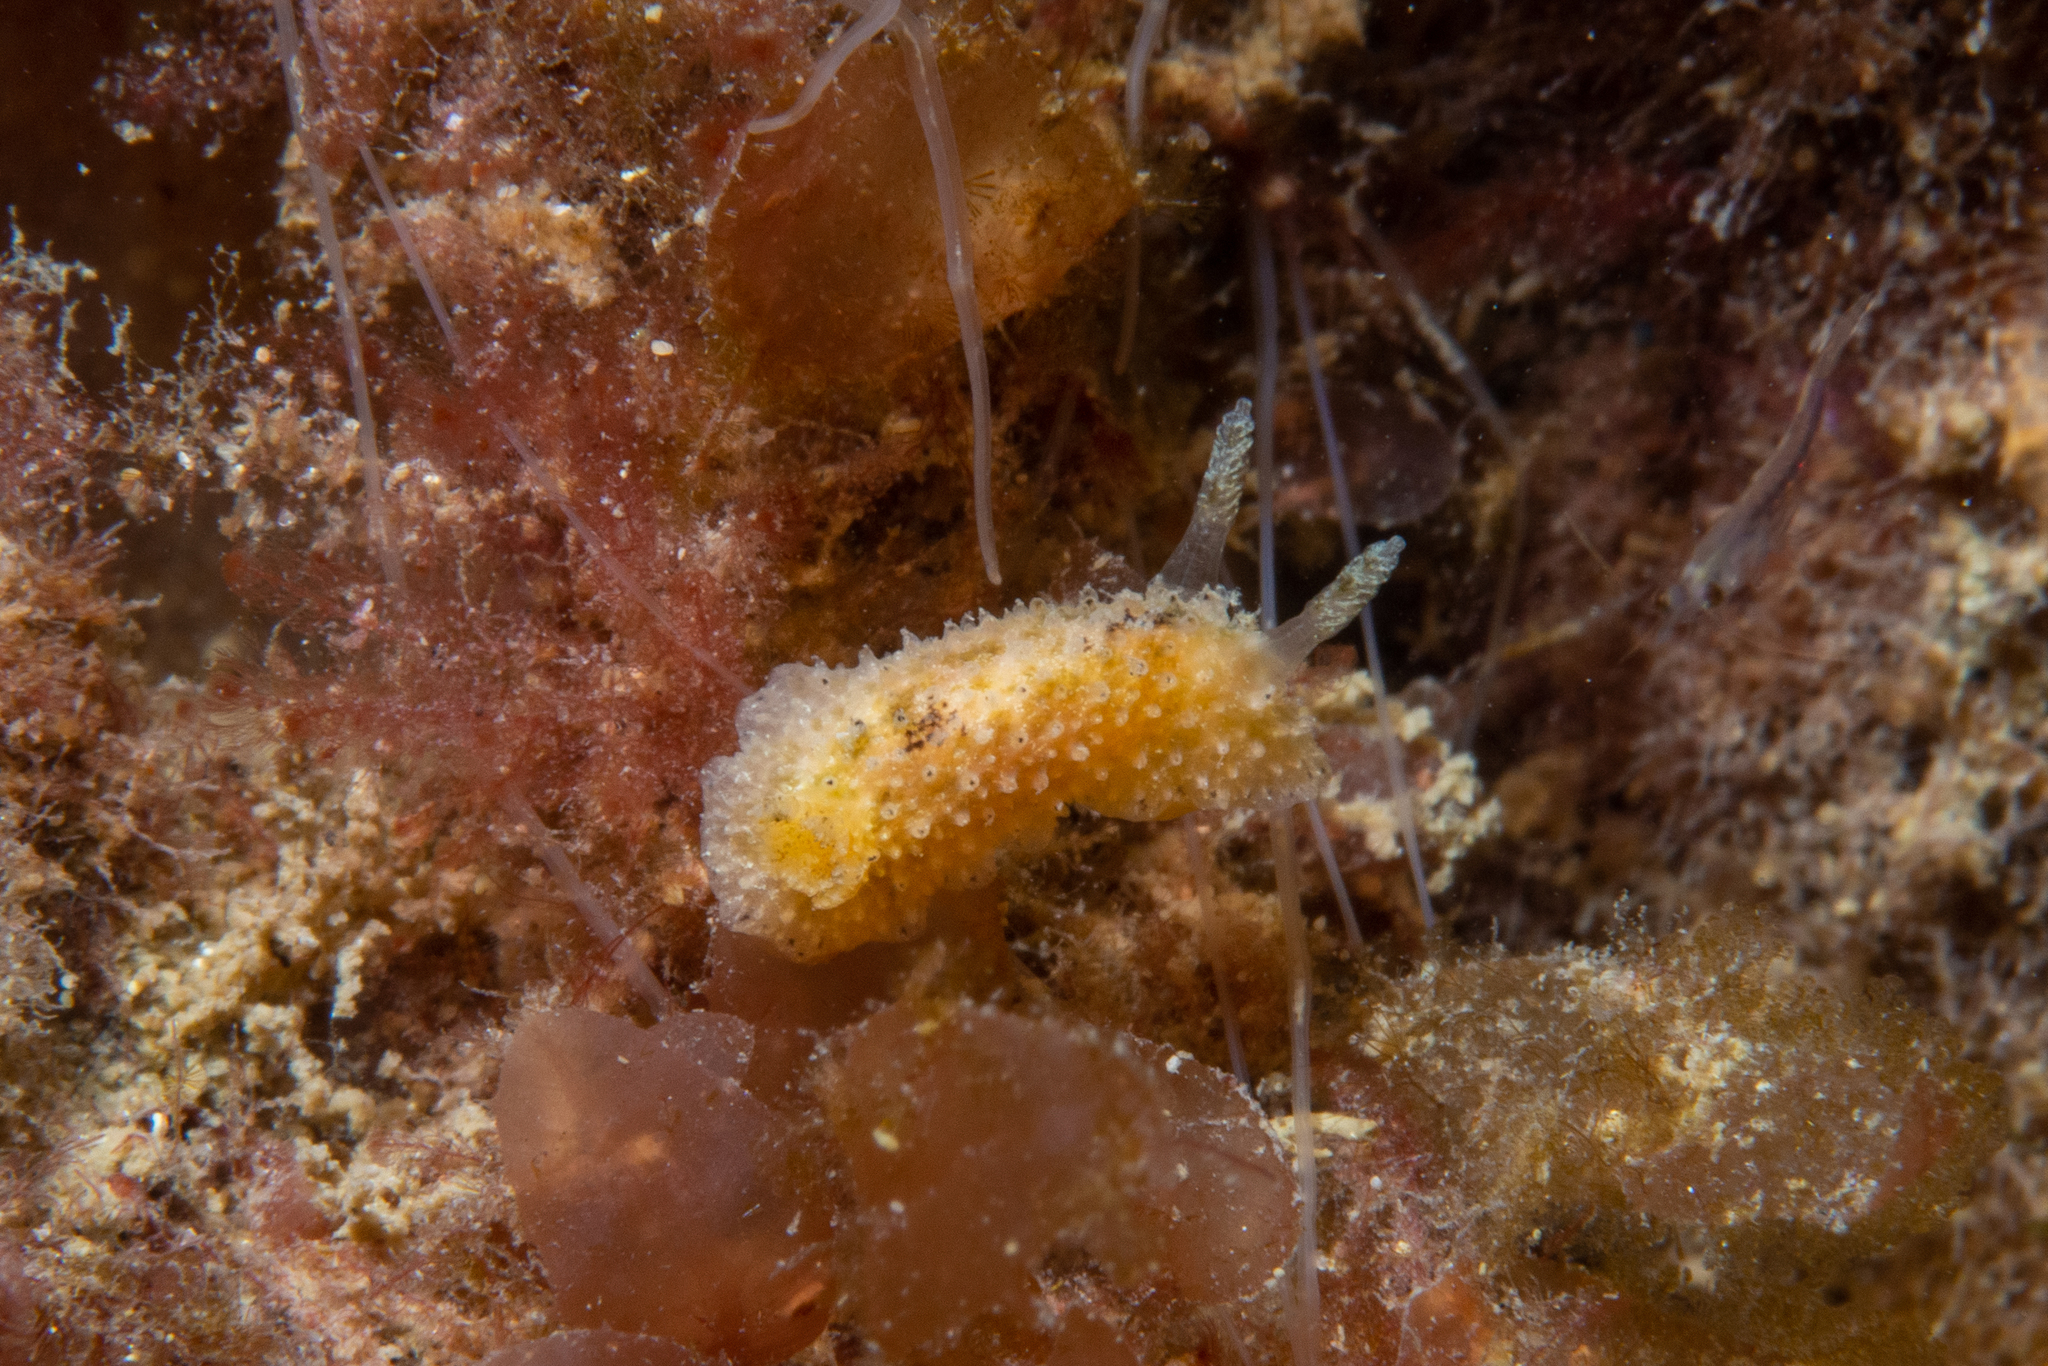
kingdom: Animalia
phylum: Mollusca
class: Gastropoda
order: Nudibranchia
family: Dorididae
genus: Doris
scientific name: Doris cameroni
